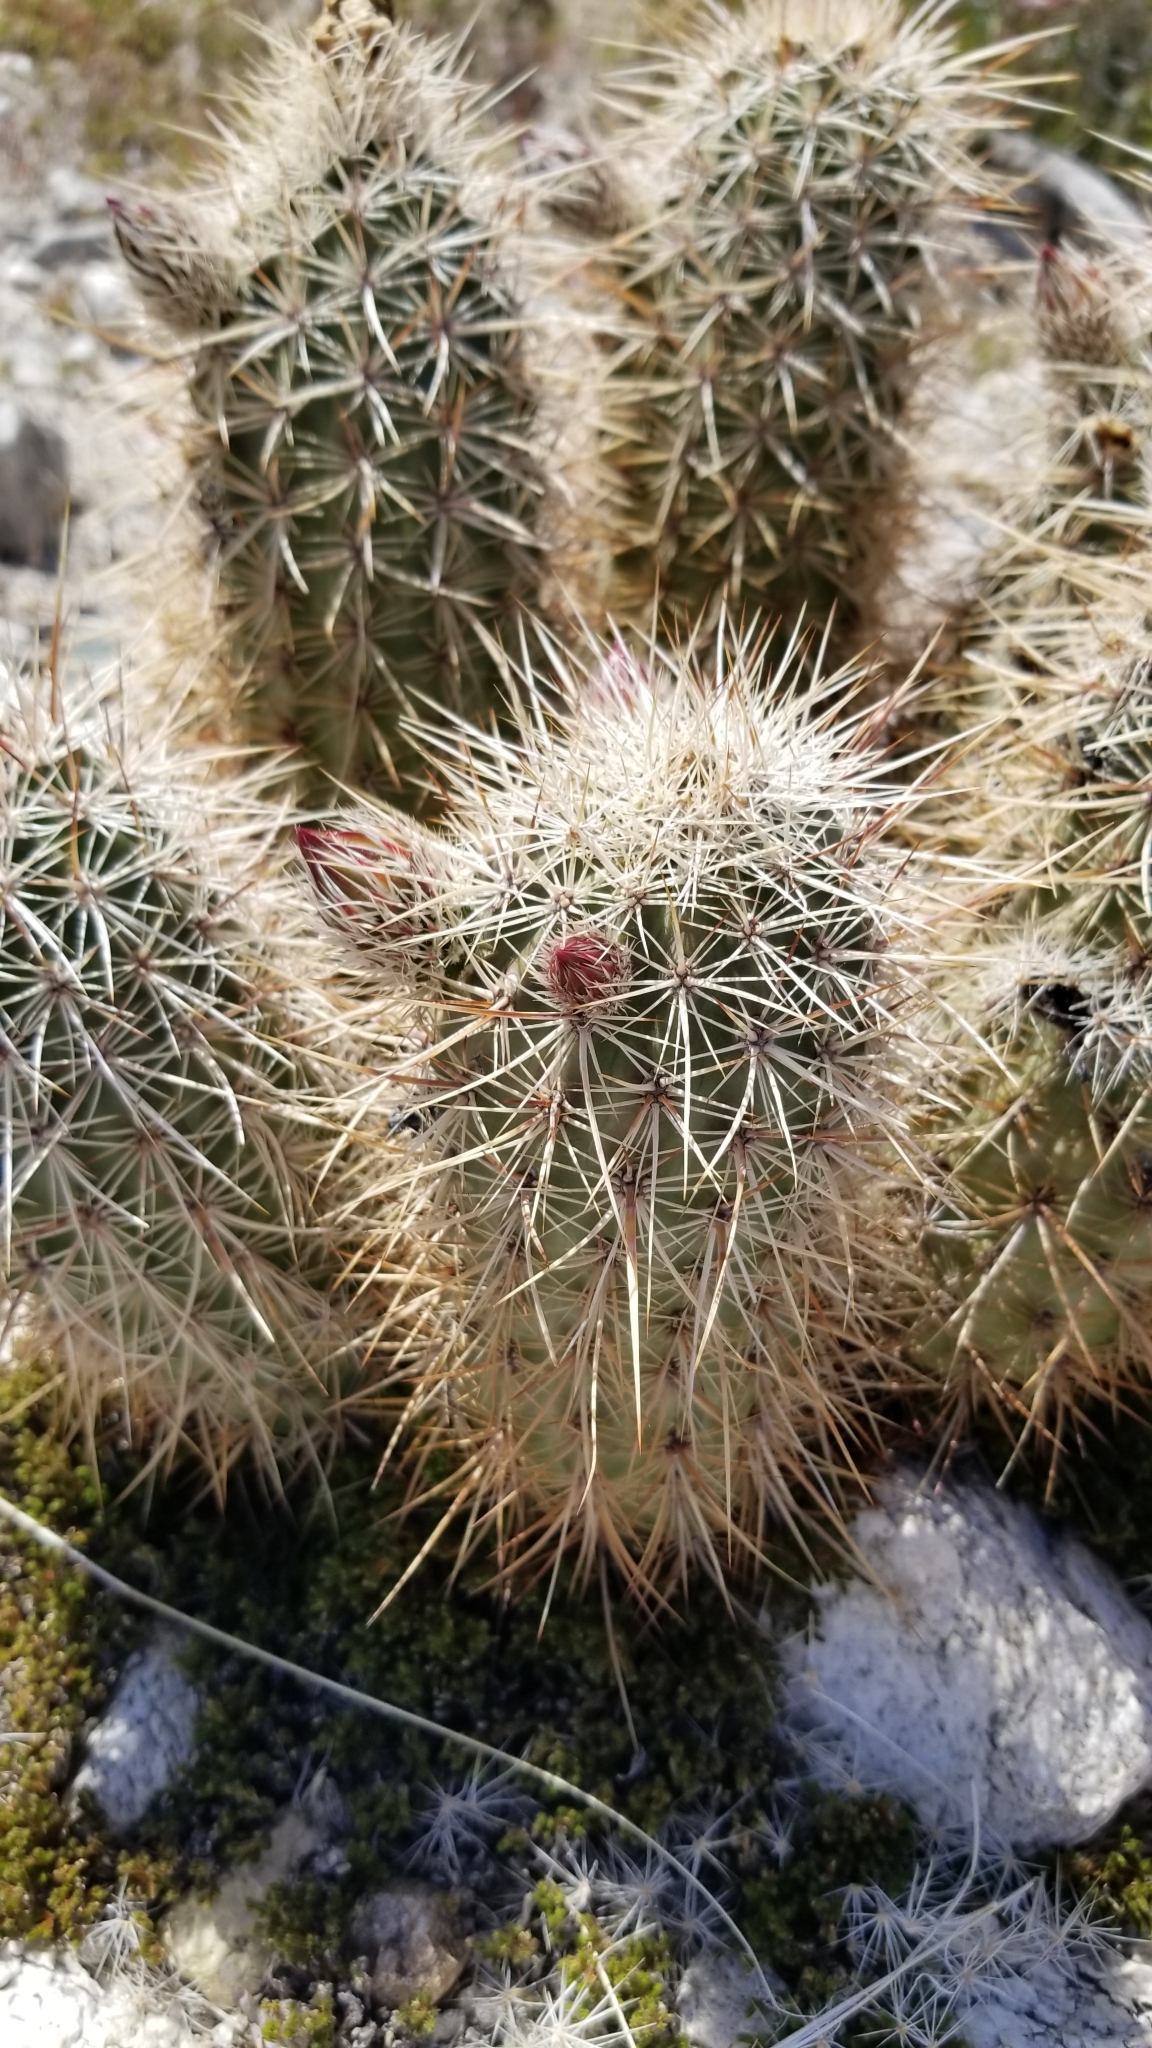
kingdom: Plantae
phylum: Tracheophyta
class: Magnoliopsida
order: Caryophyllales
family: Cactaceae
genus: Echinocereus
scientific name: Echinocereus engelmannii
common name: Engelmann's hedgehog cactus
